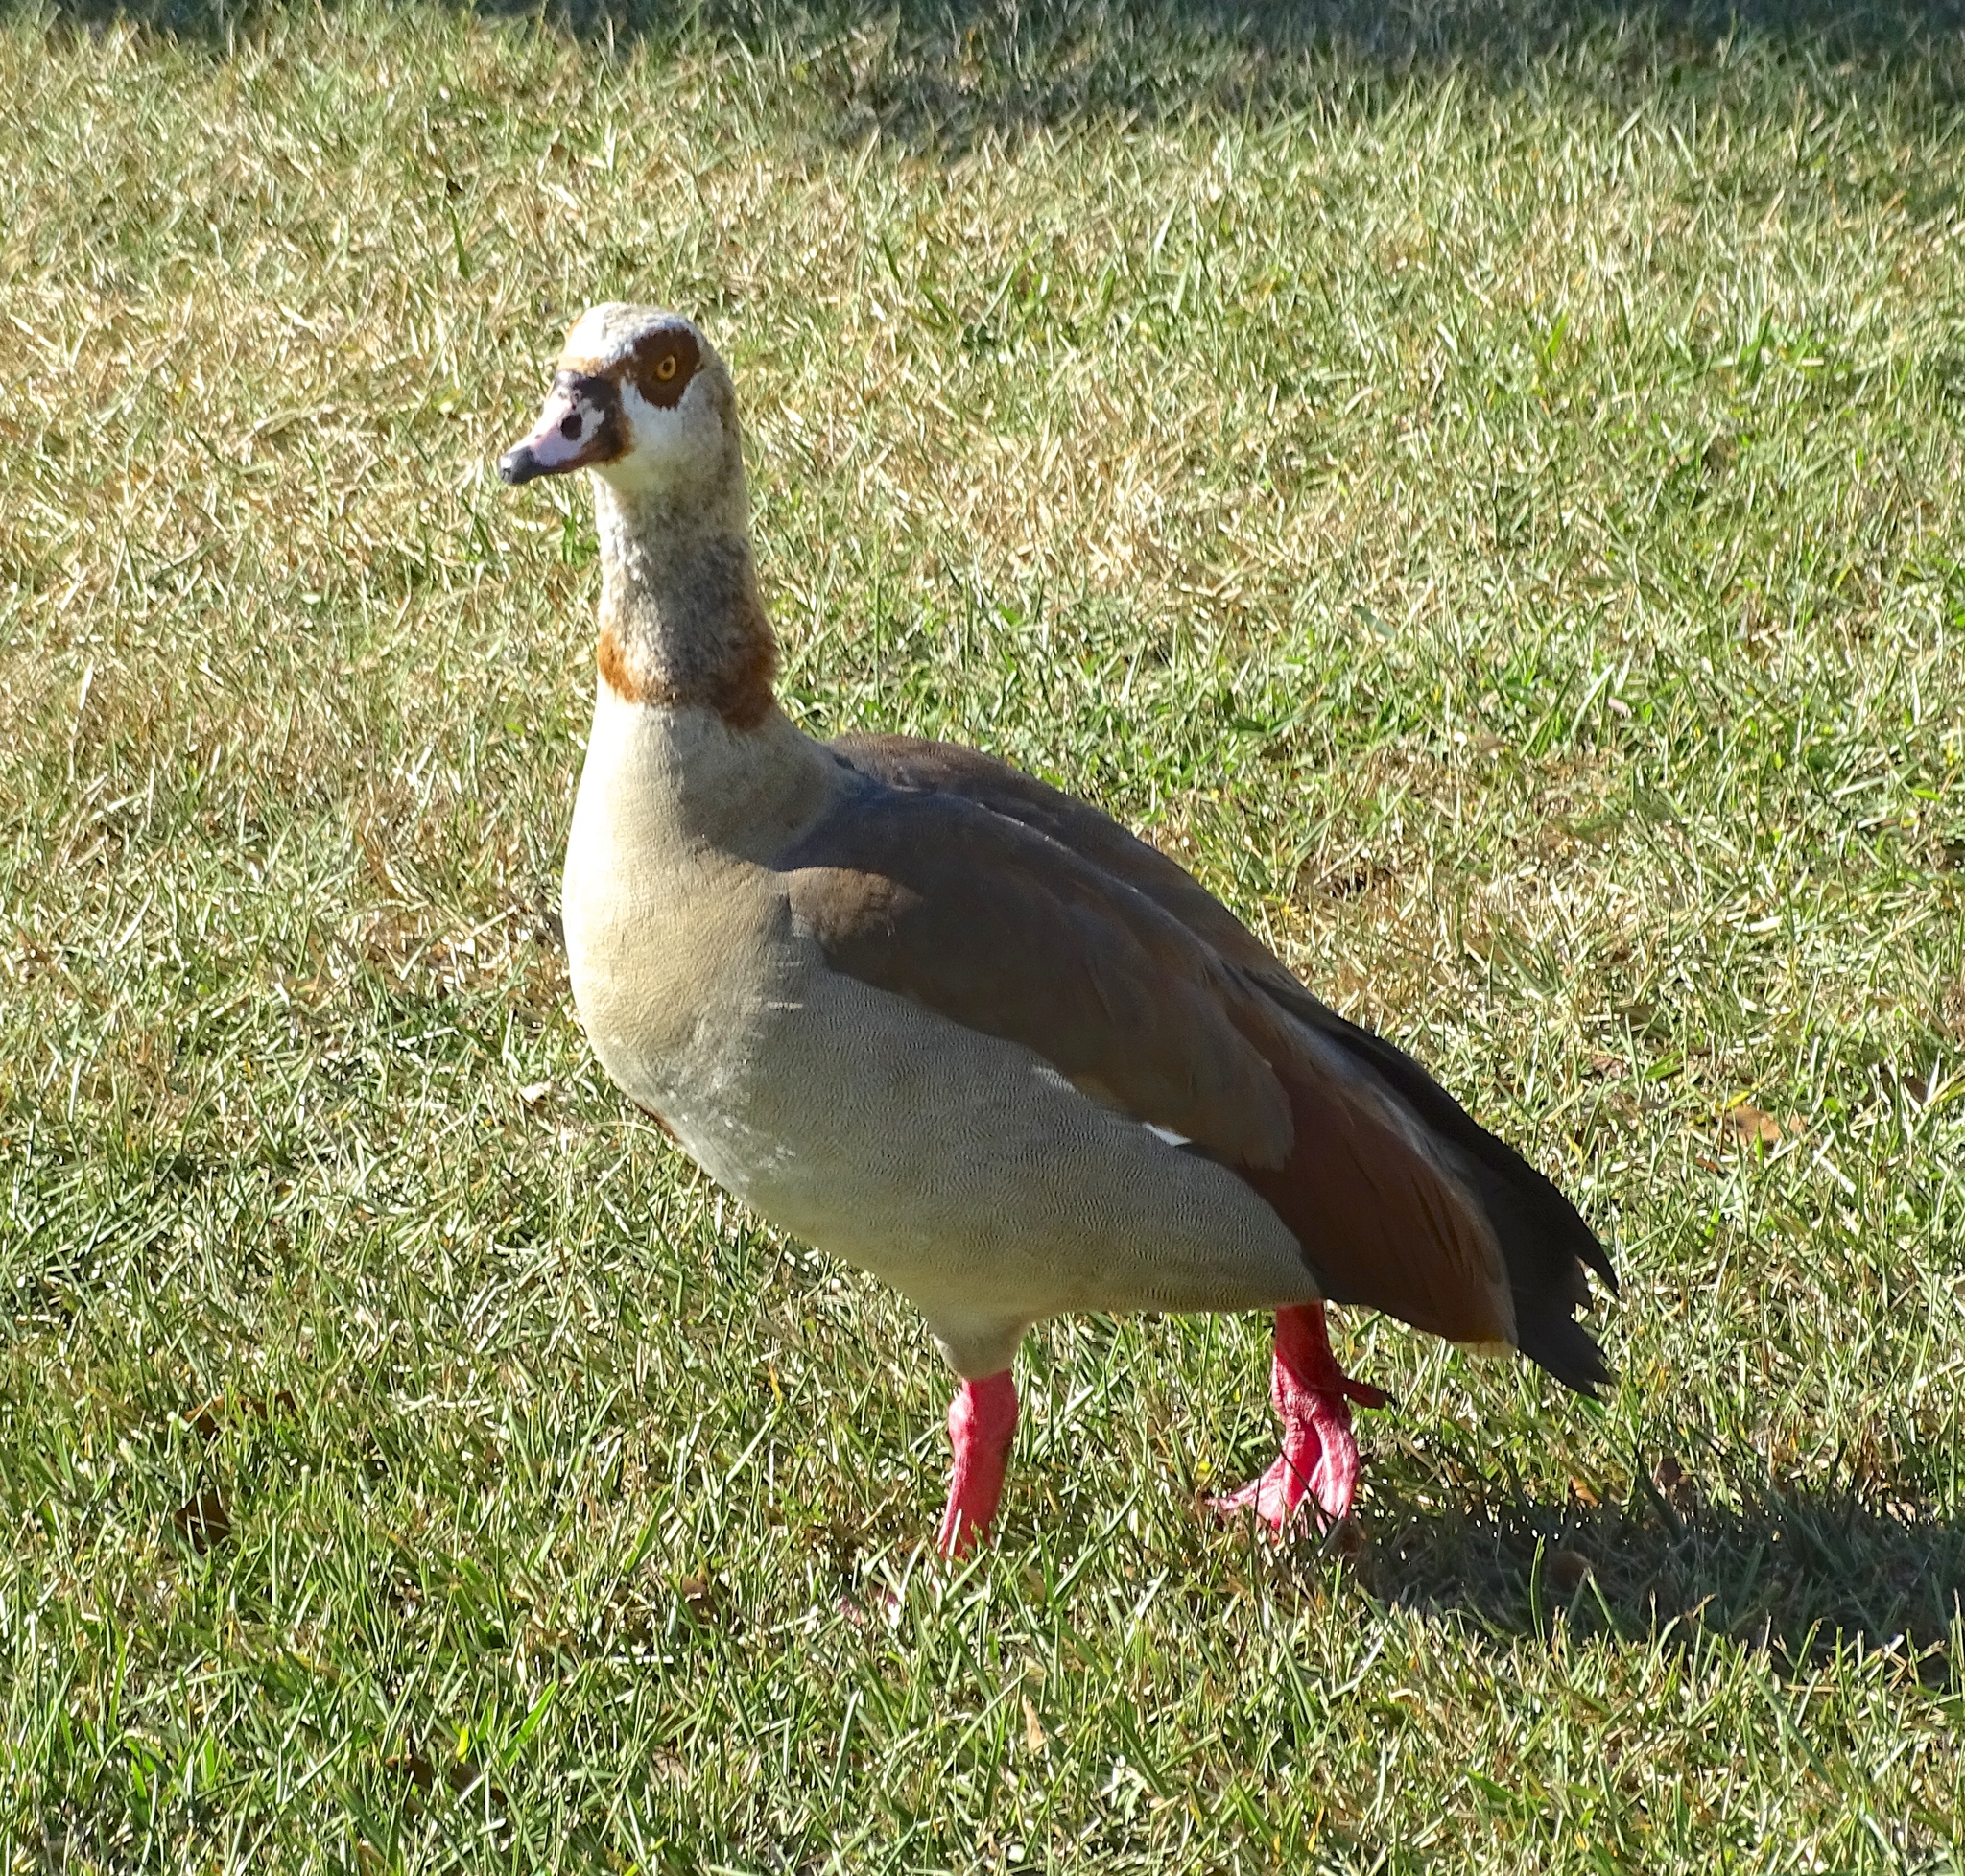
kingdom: Animalia
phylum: Chordata
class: Aves
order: Anseriformes
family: Anatidae
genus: Alopochen
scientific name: Alopochen aegyptiaca
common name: Egyptian goose
